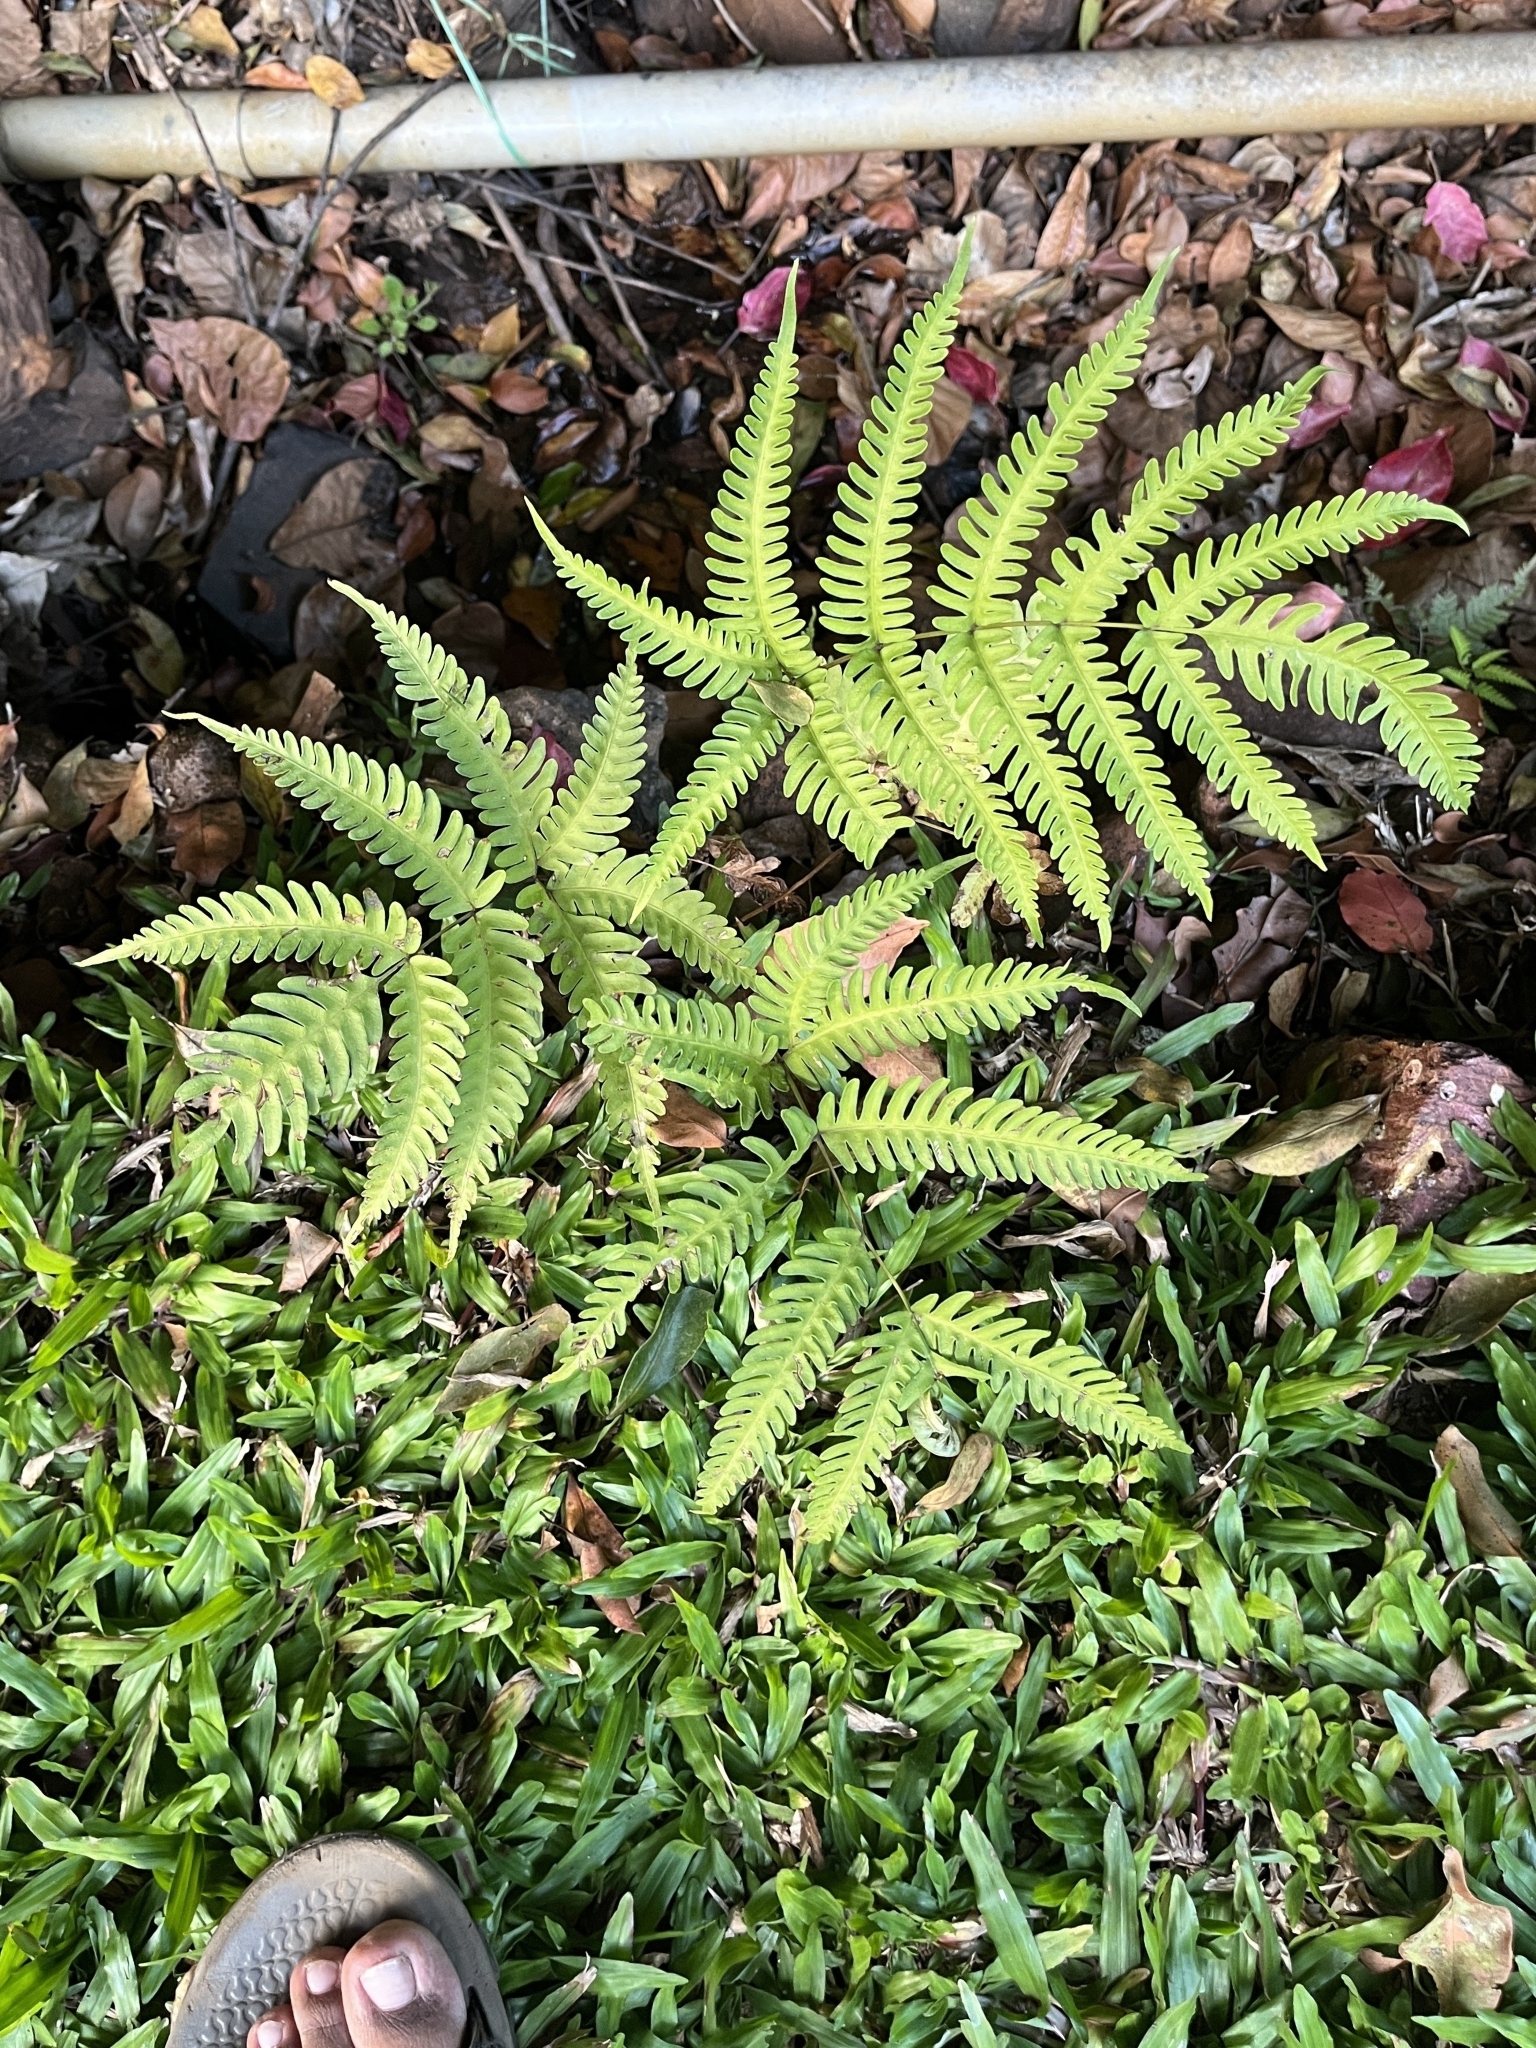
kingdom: Plantae
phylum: Tracheophyta
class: Polypodiopsida
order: Polypodiales
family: Pteridaceae
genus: Pteris
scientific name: Pteris biaurita
